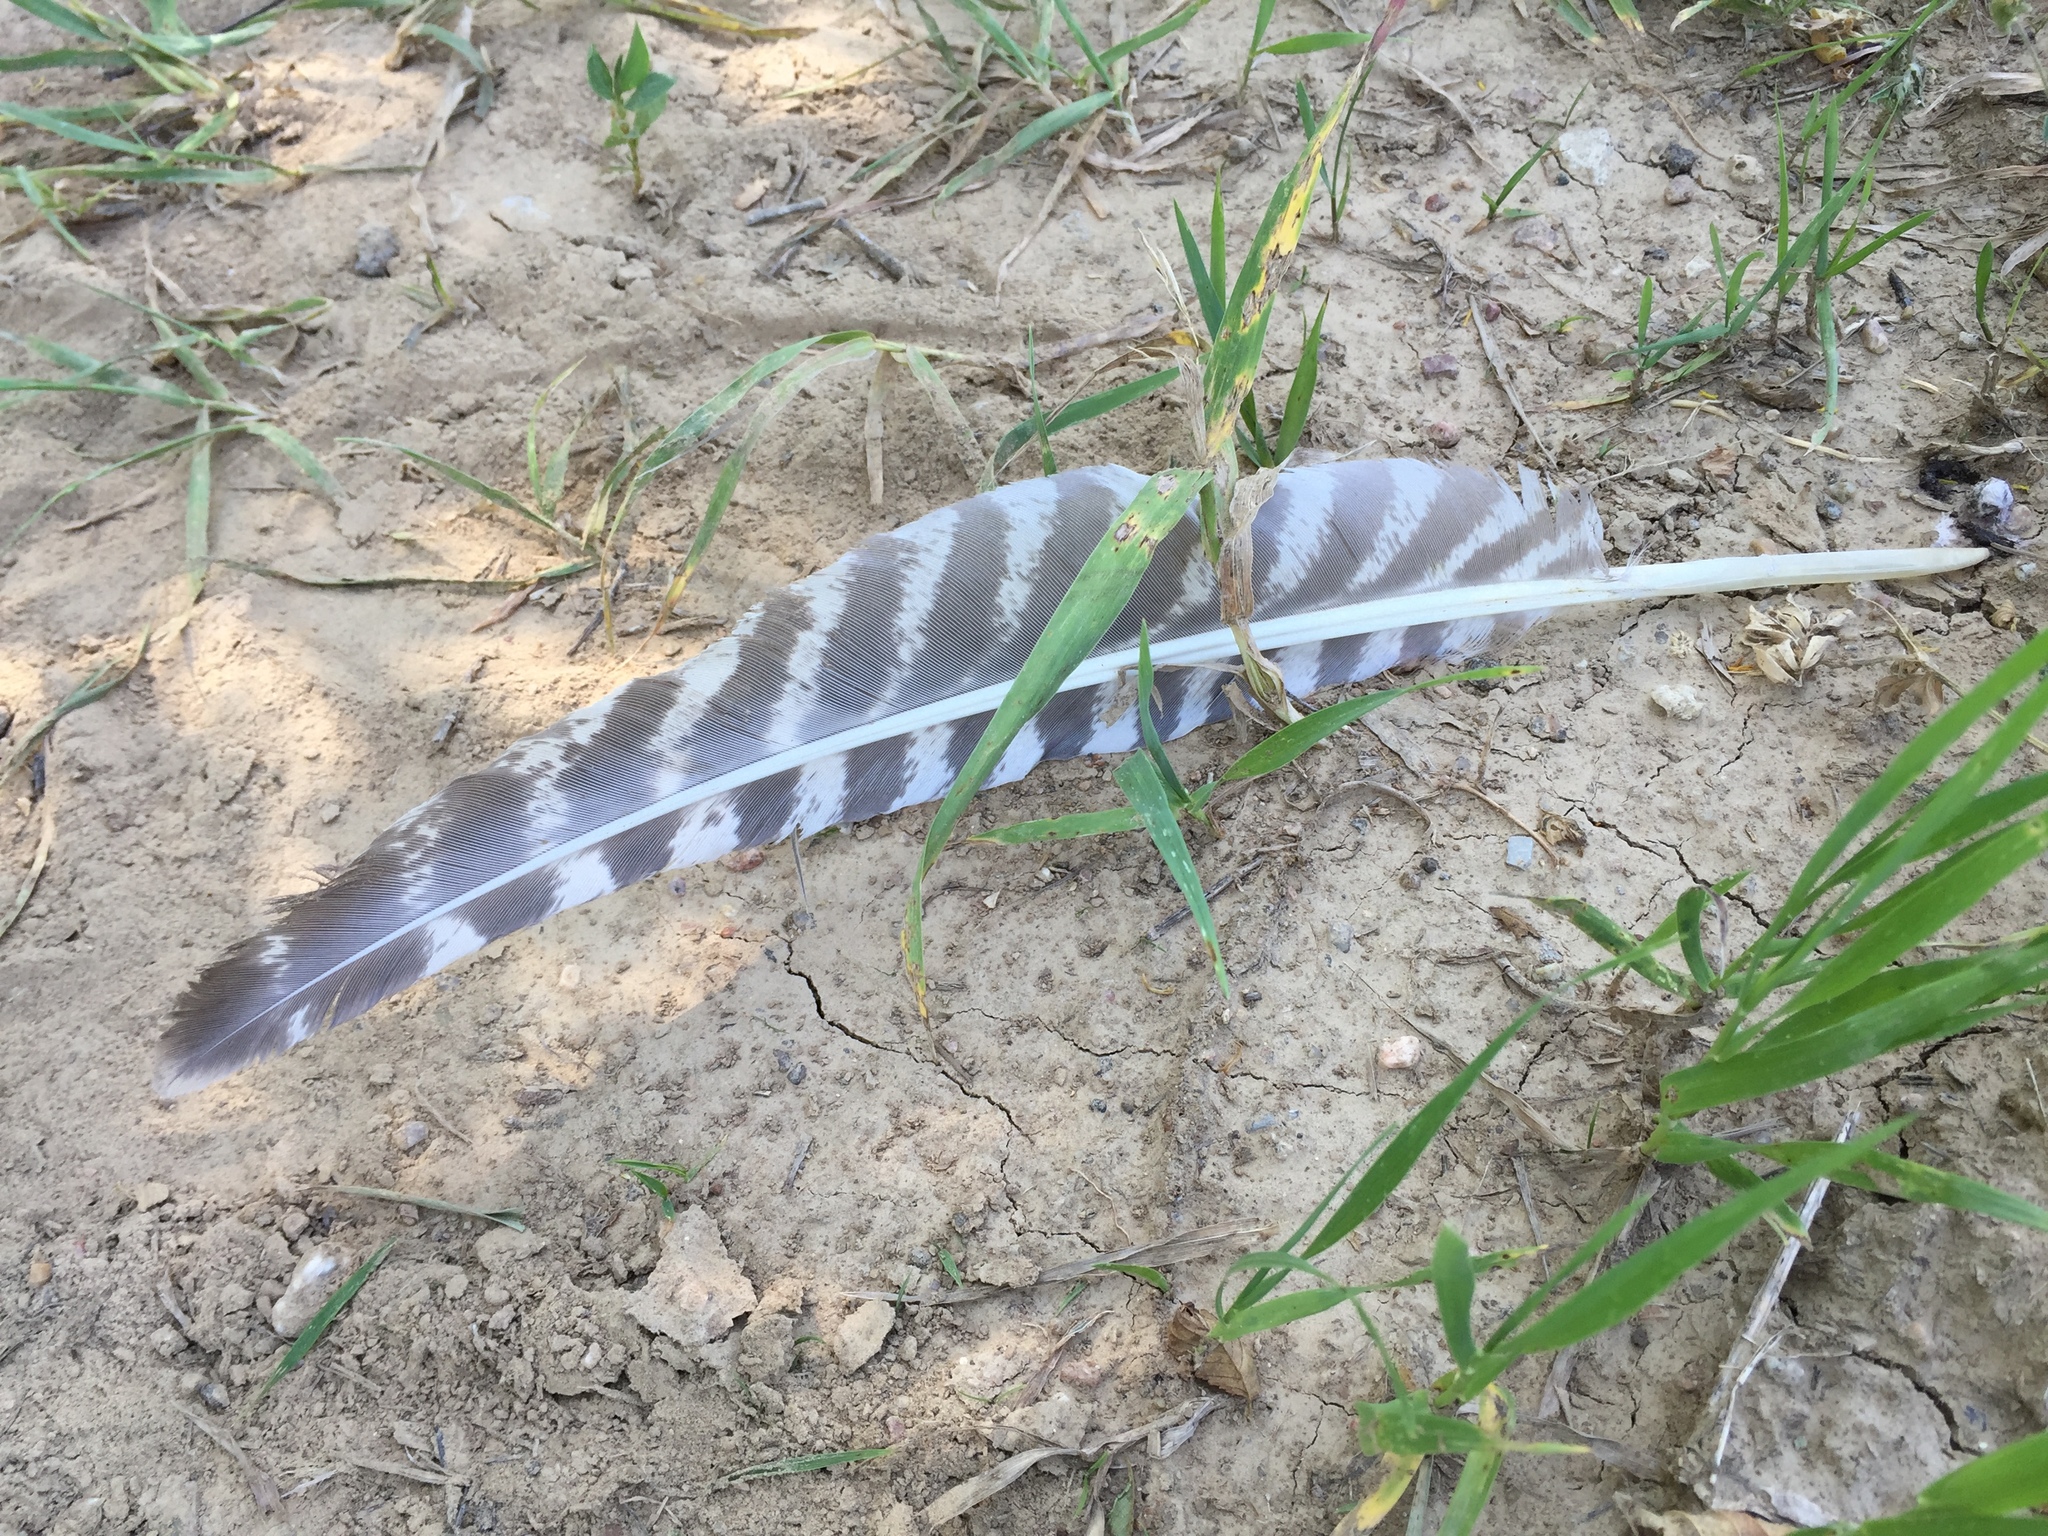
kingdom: Animalia
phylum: Chordata
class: Aves
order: Galliformes
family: Phasianidae
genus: Meleagris
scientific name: Meleagris gallopavo
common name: Wild turkey
